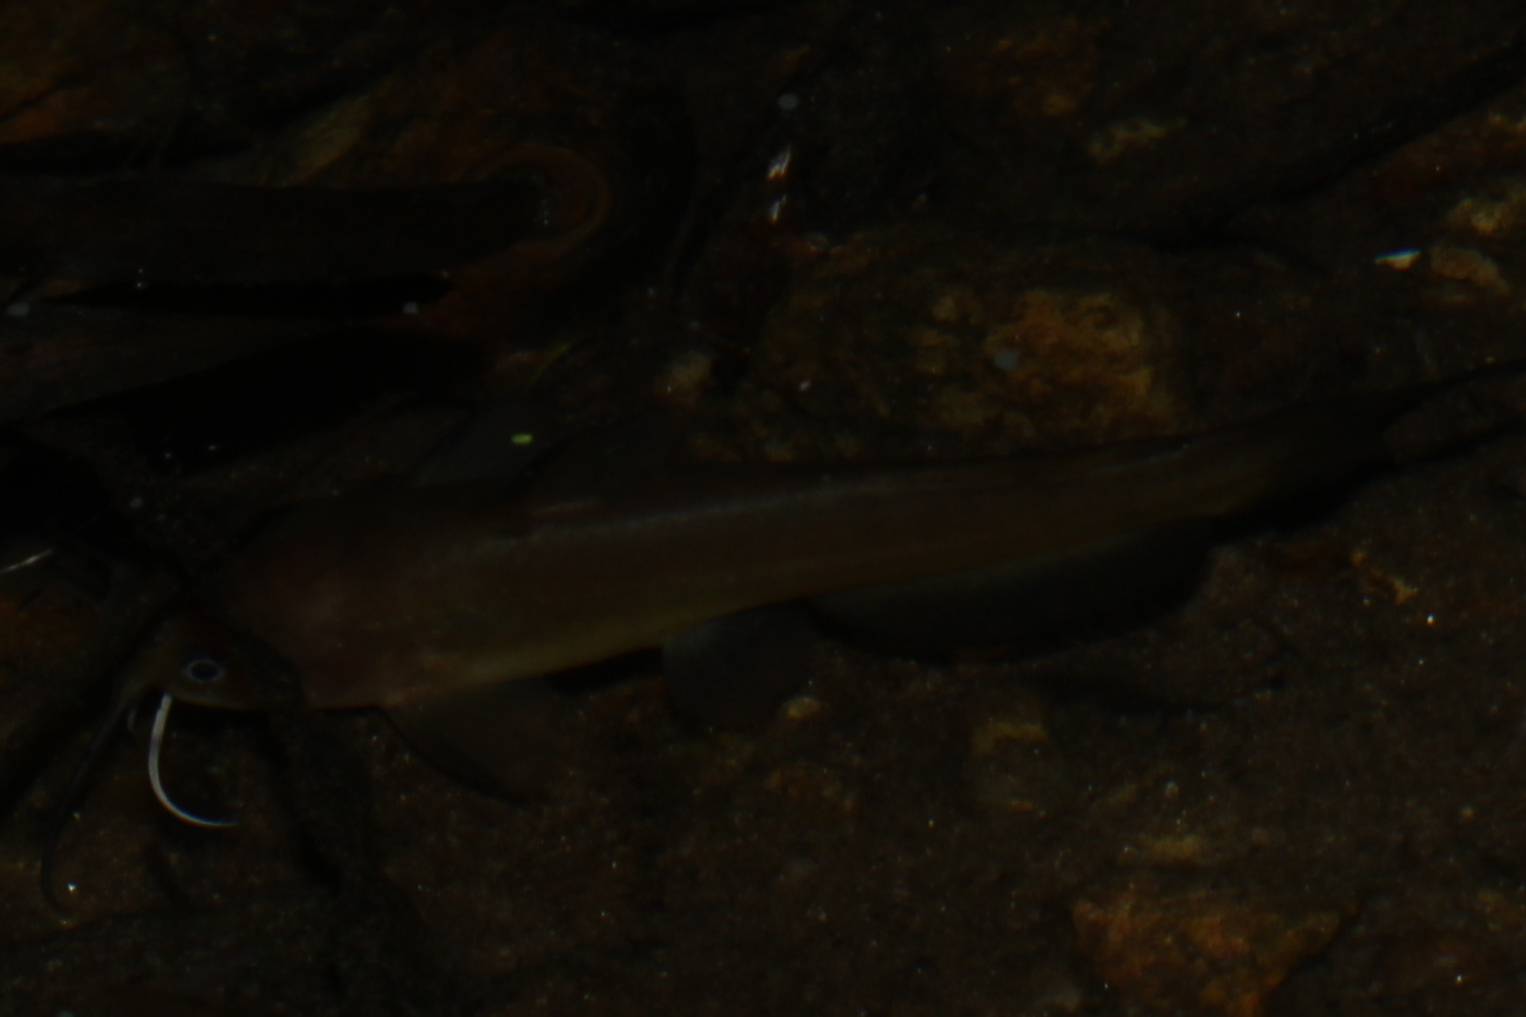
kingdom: Animalia
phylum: Chordata
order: Siluriformes
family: Ictaluridae
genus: Ameiurus
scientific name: Ameiurus natalis
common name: Yellow bullhead
